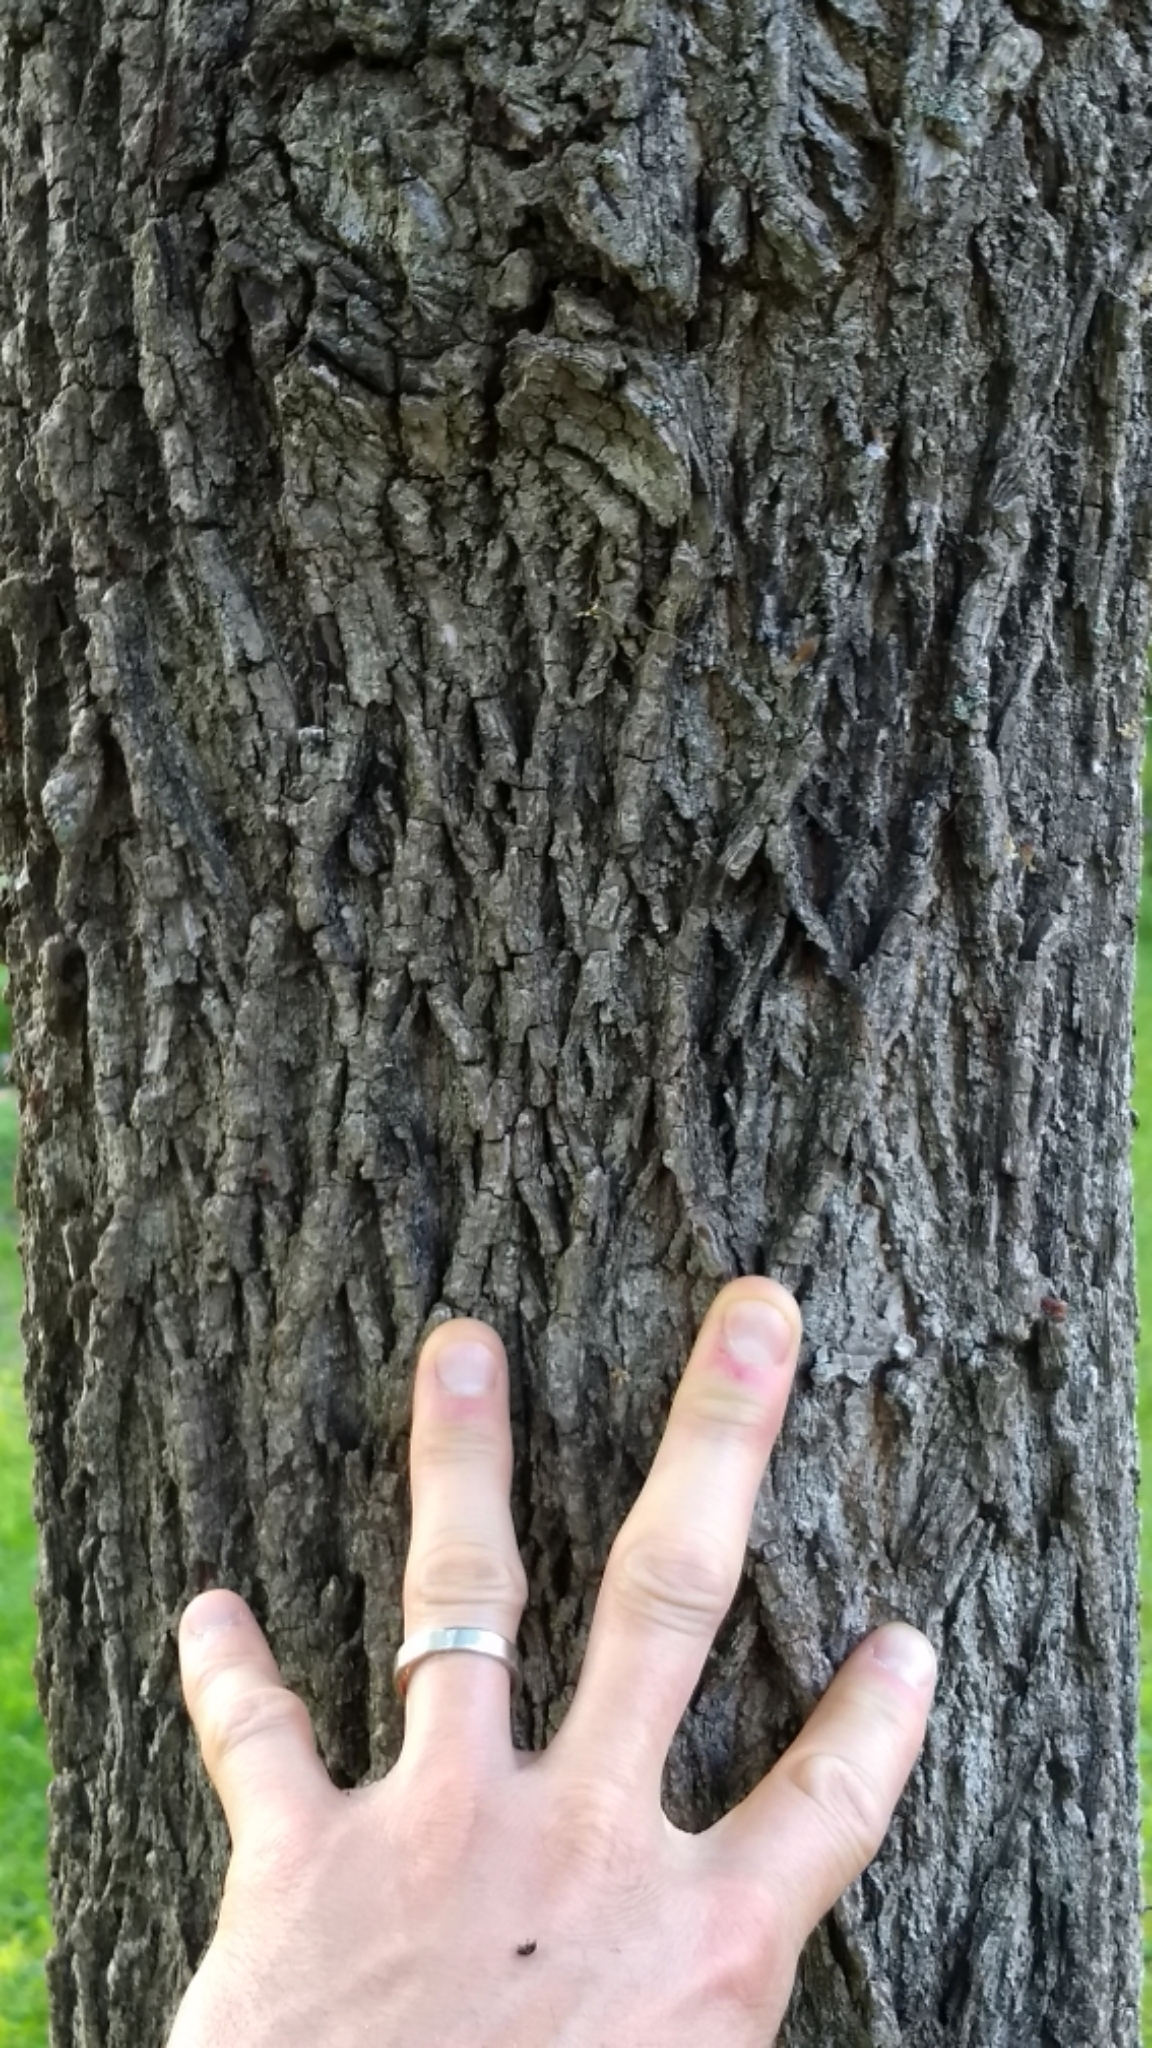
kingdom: Plantae
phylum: Tracheophyta
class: Magnoliopsida
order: Fagales
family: Juglandaceae
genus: Juglans
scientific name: Juglans nigra
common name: Black walnut
